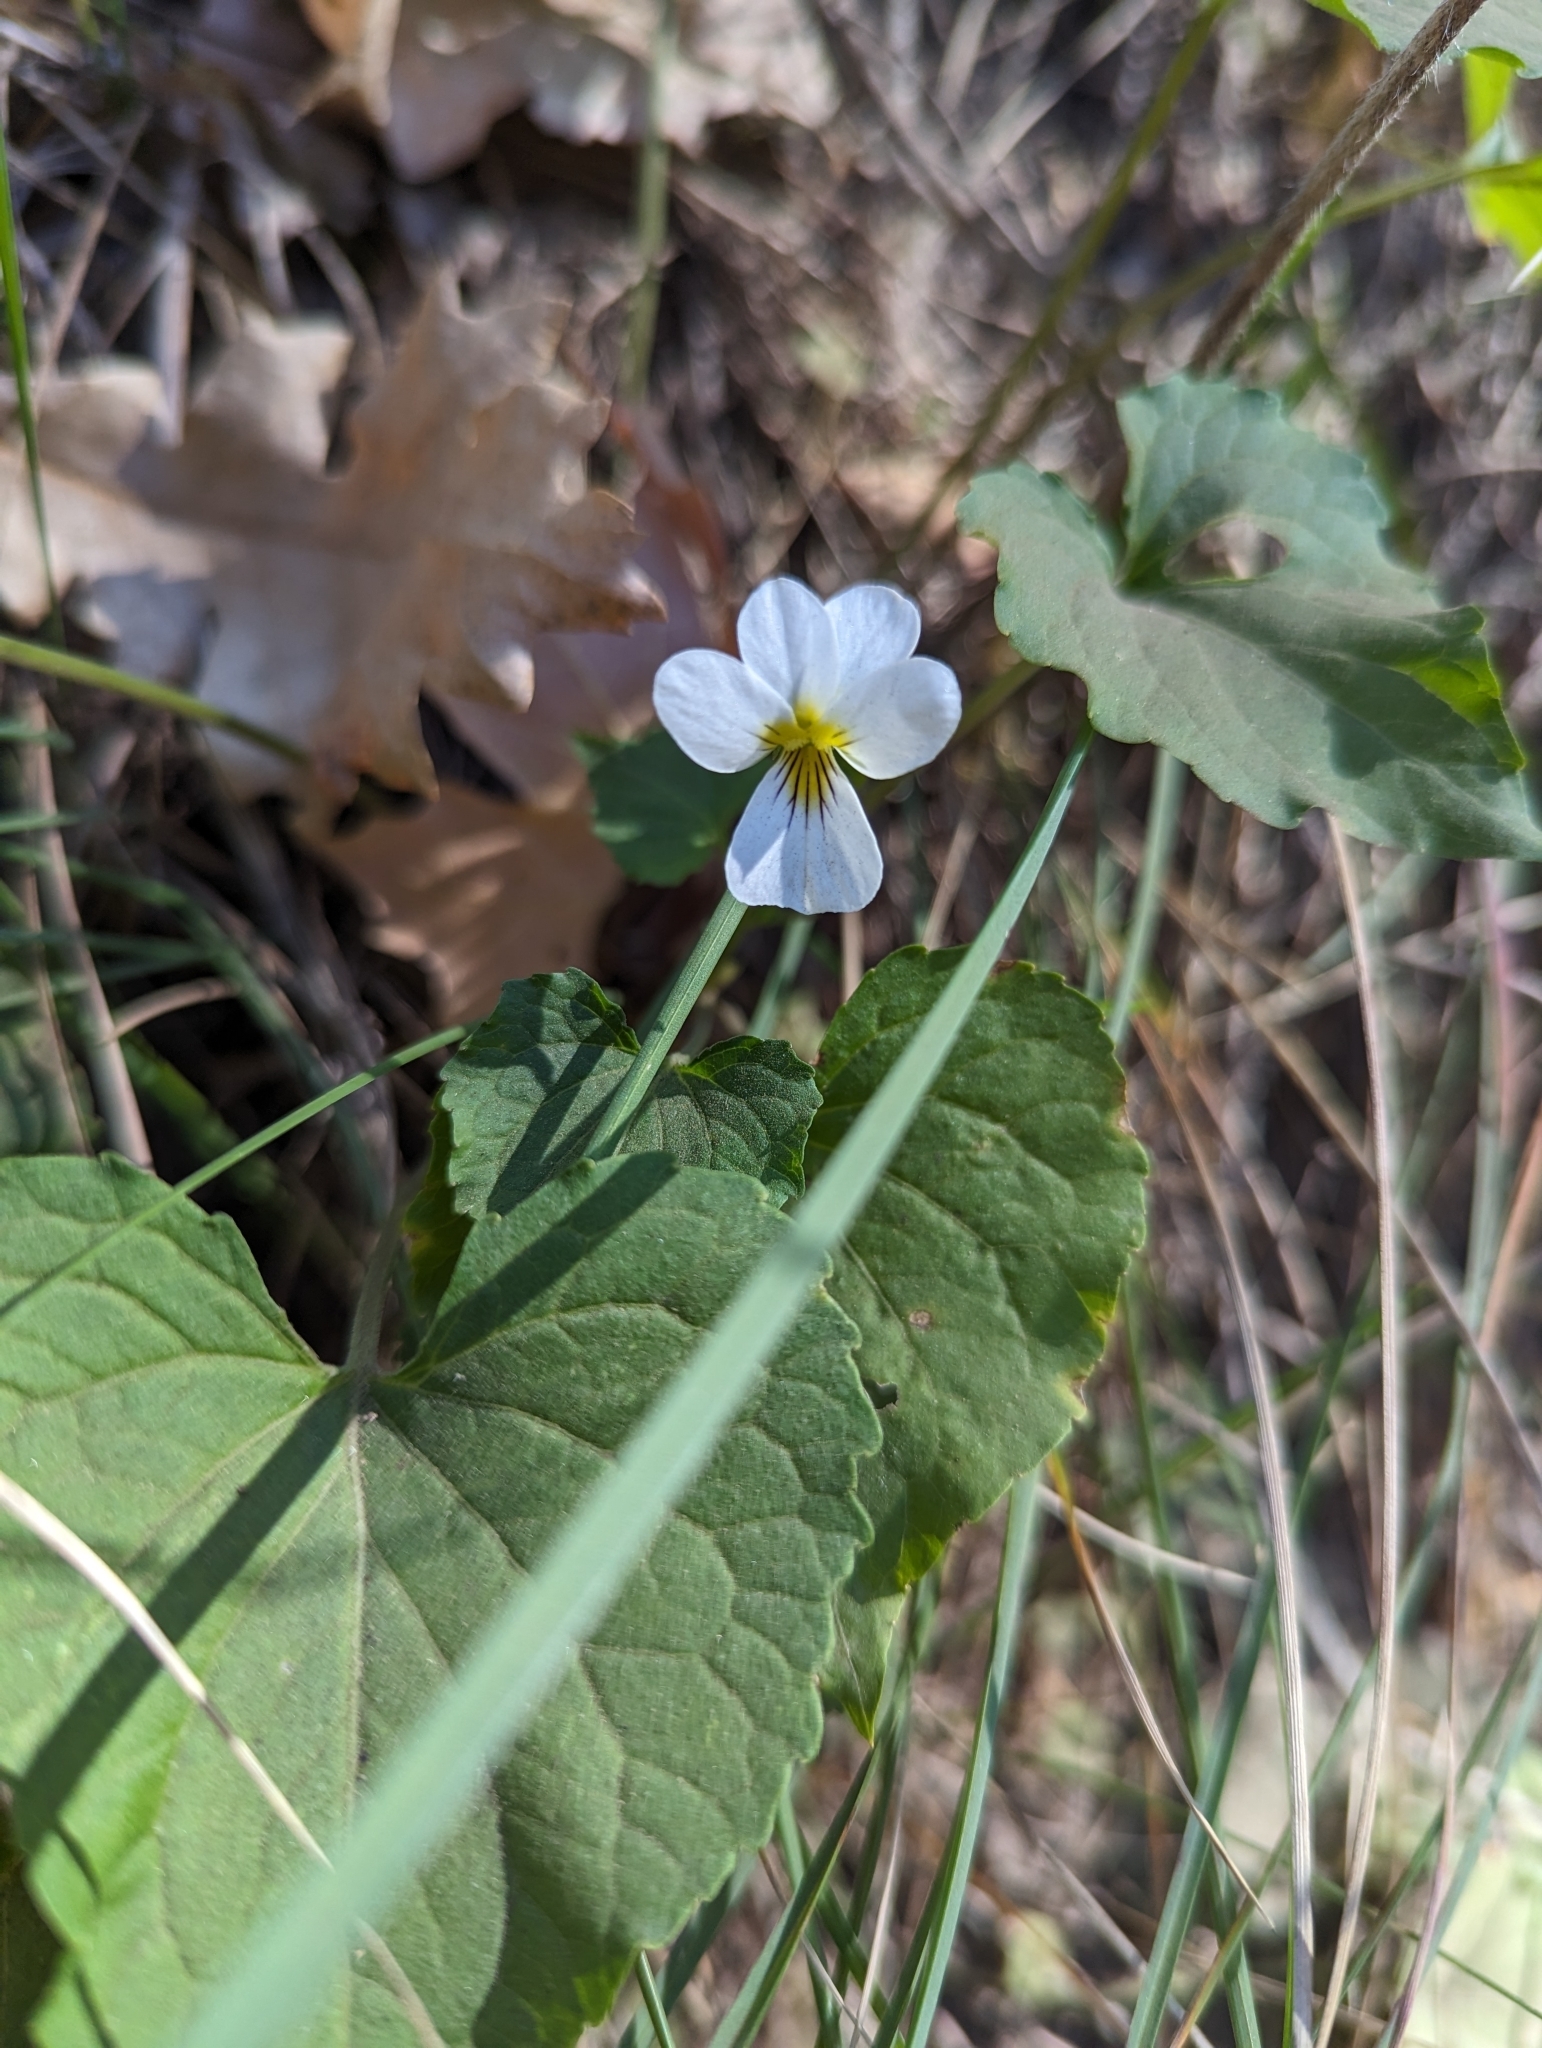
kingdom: Plantae
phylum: Tracheophyta
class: Magnoliopsida
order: Malpighiales
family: Violaceae
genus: Viola
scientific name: Viola canadensis
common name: Canada violet
